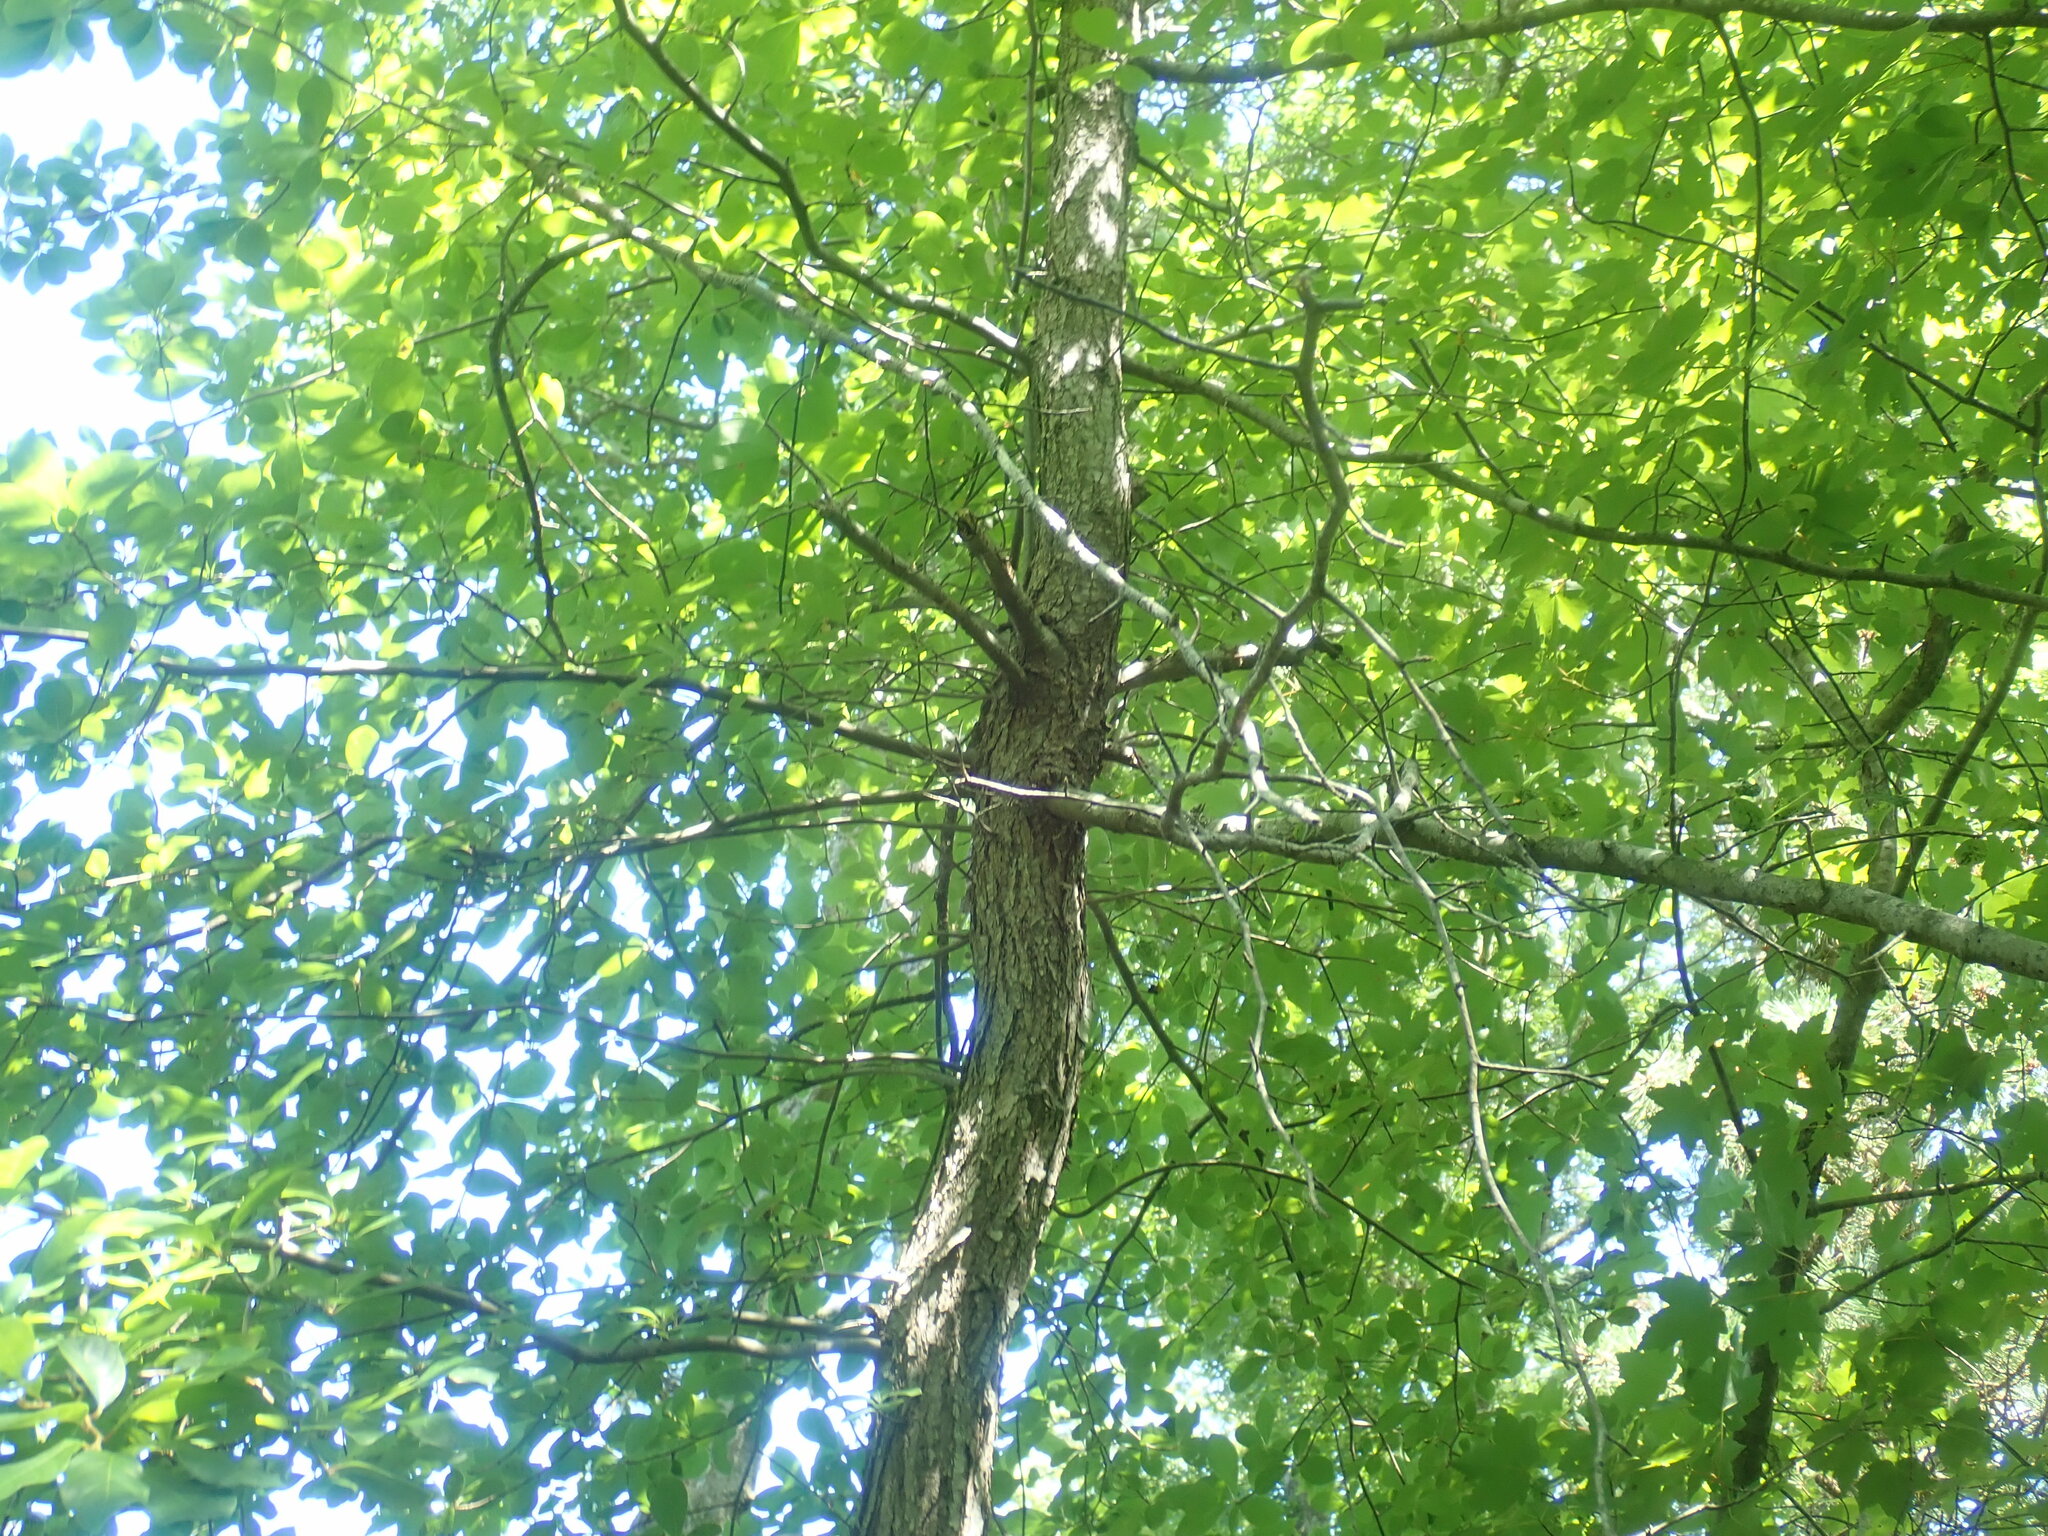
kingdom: Plantae
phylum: Tracheophyta
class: Magnoliopsida
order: Cornales
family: Nyssaceae
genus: Nyssa
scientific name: Nyssa sylvatica
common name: Black tupelo
